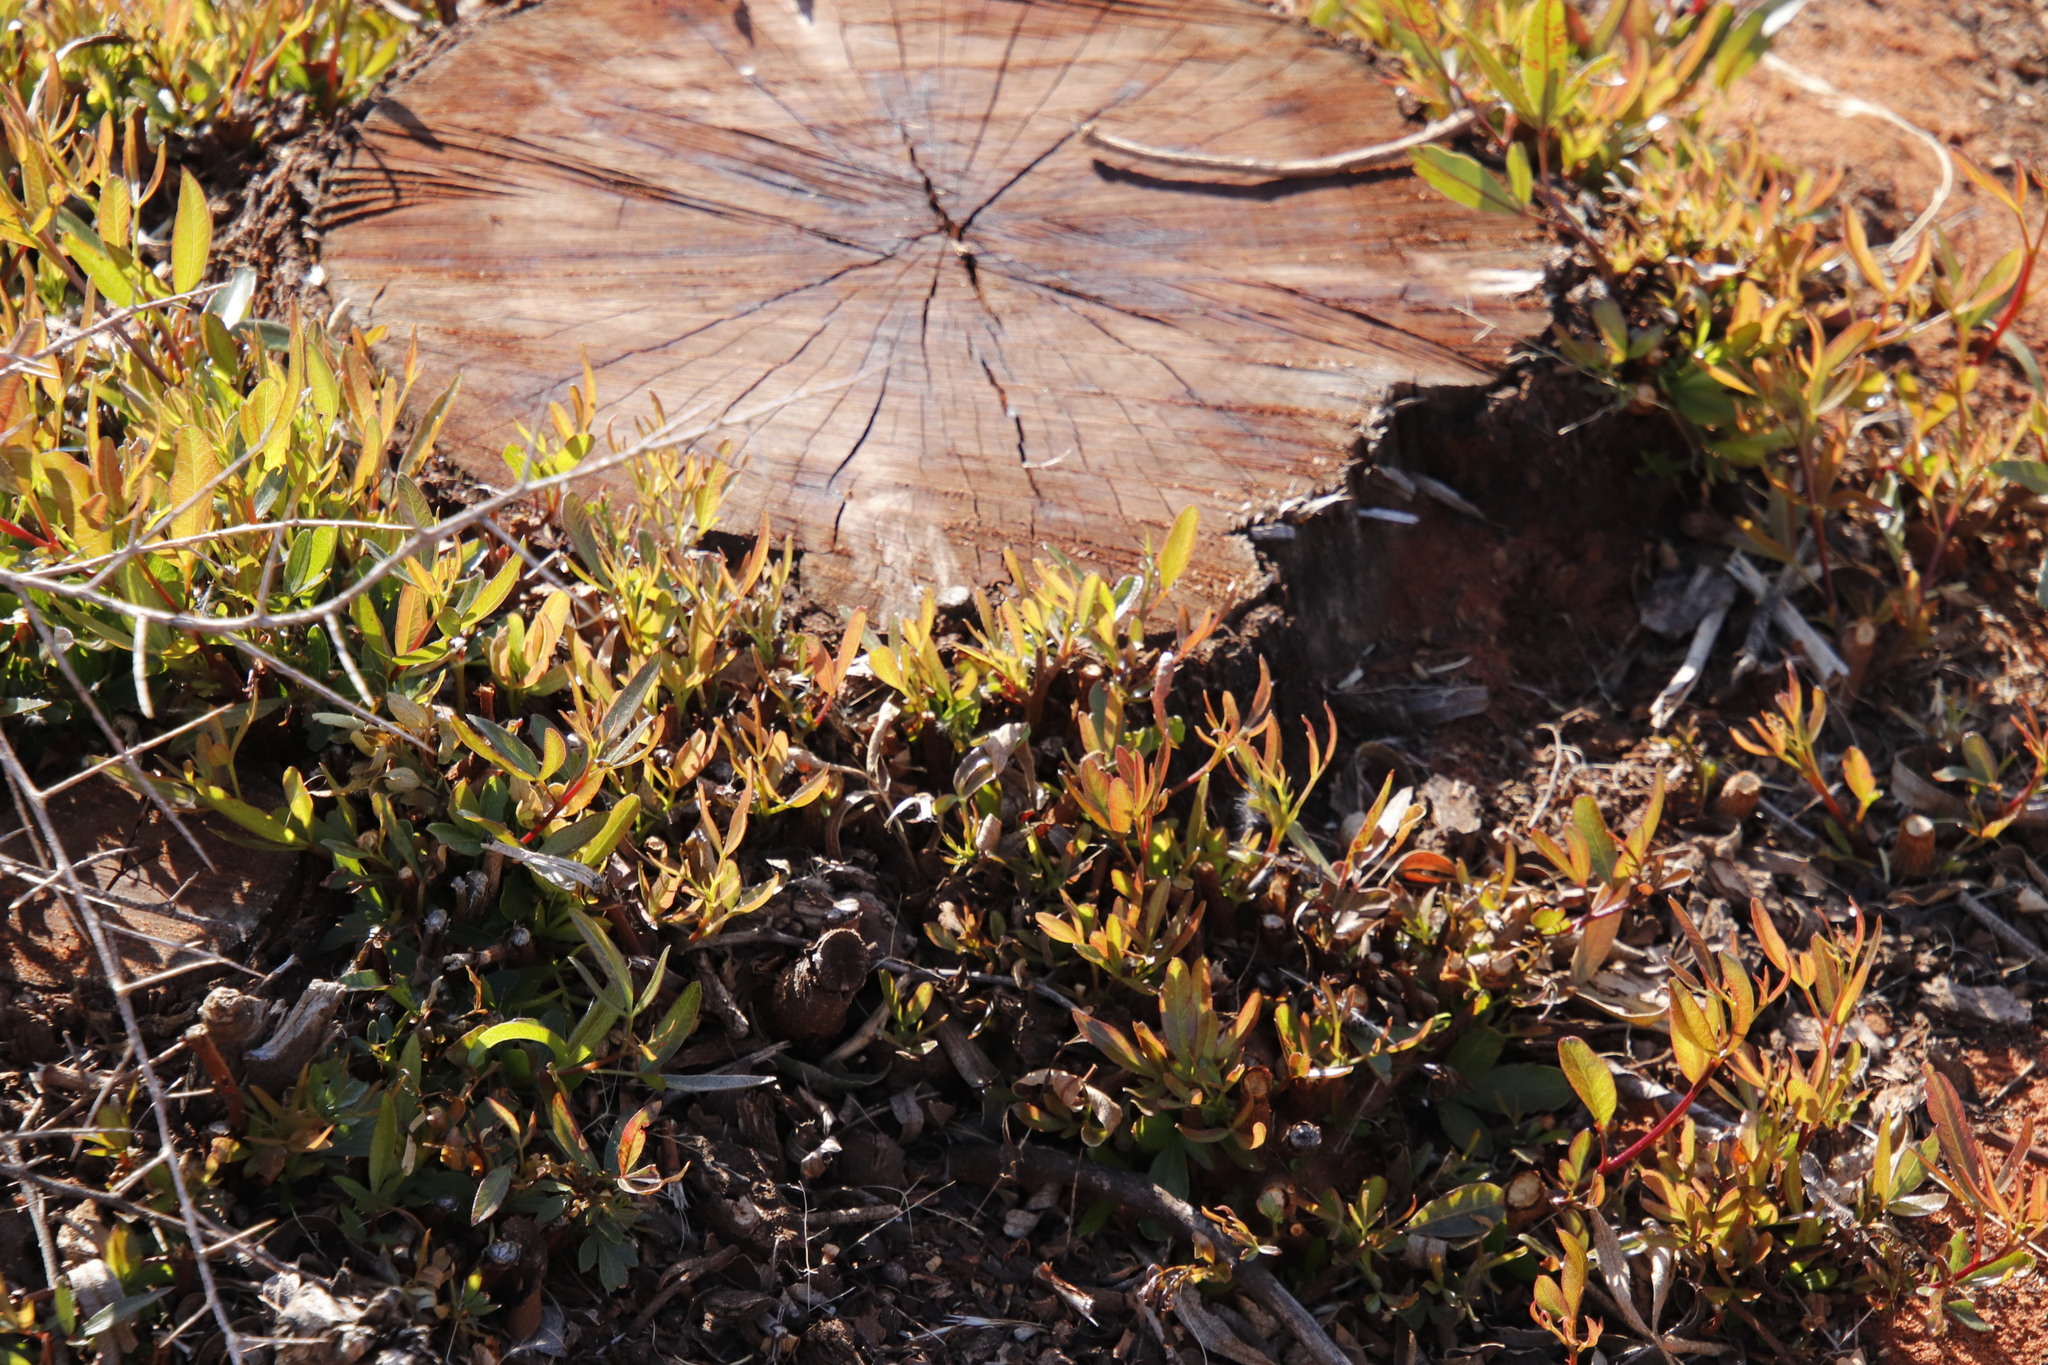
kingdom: Plantae
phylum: Tracheophyta
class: Magnoliopsida
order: Sapindales
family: Anacardiaceae
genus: Searsia
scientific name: Searsia lancea
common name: Cashew
